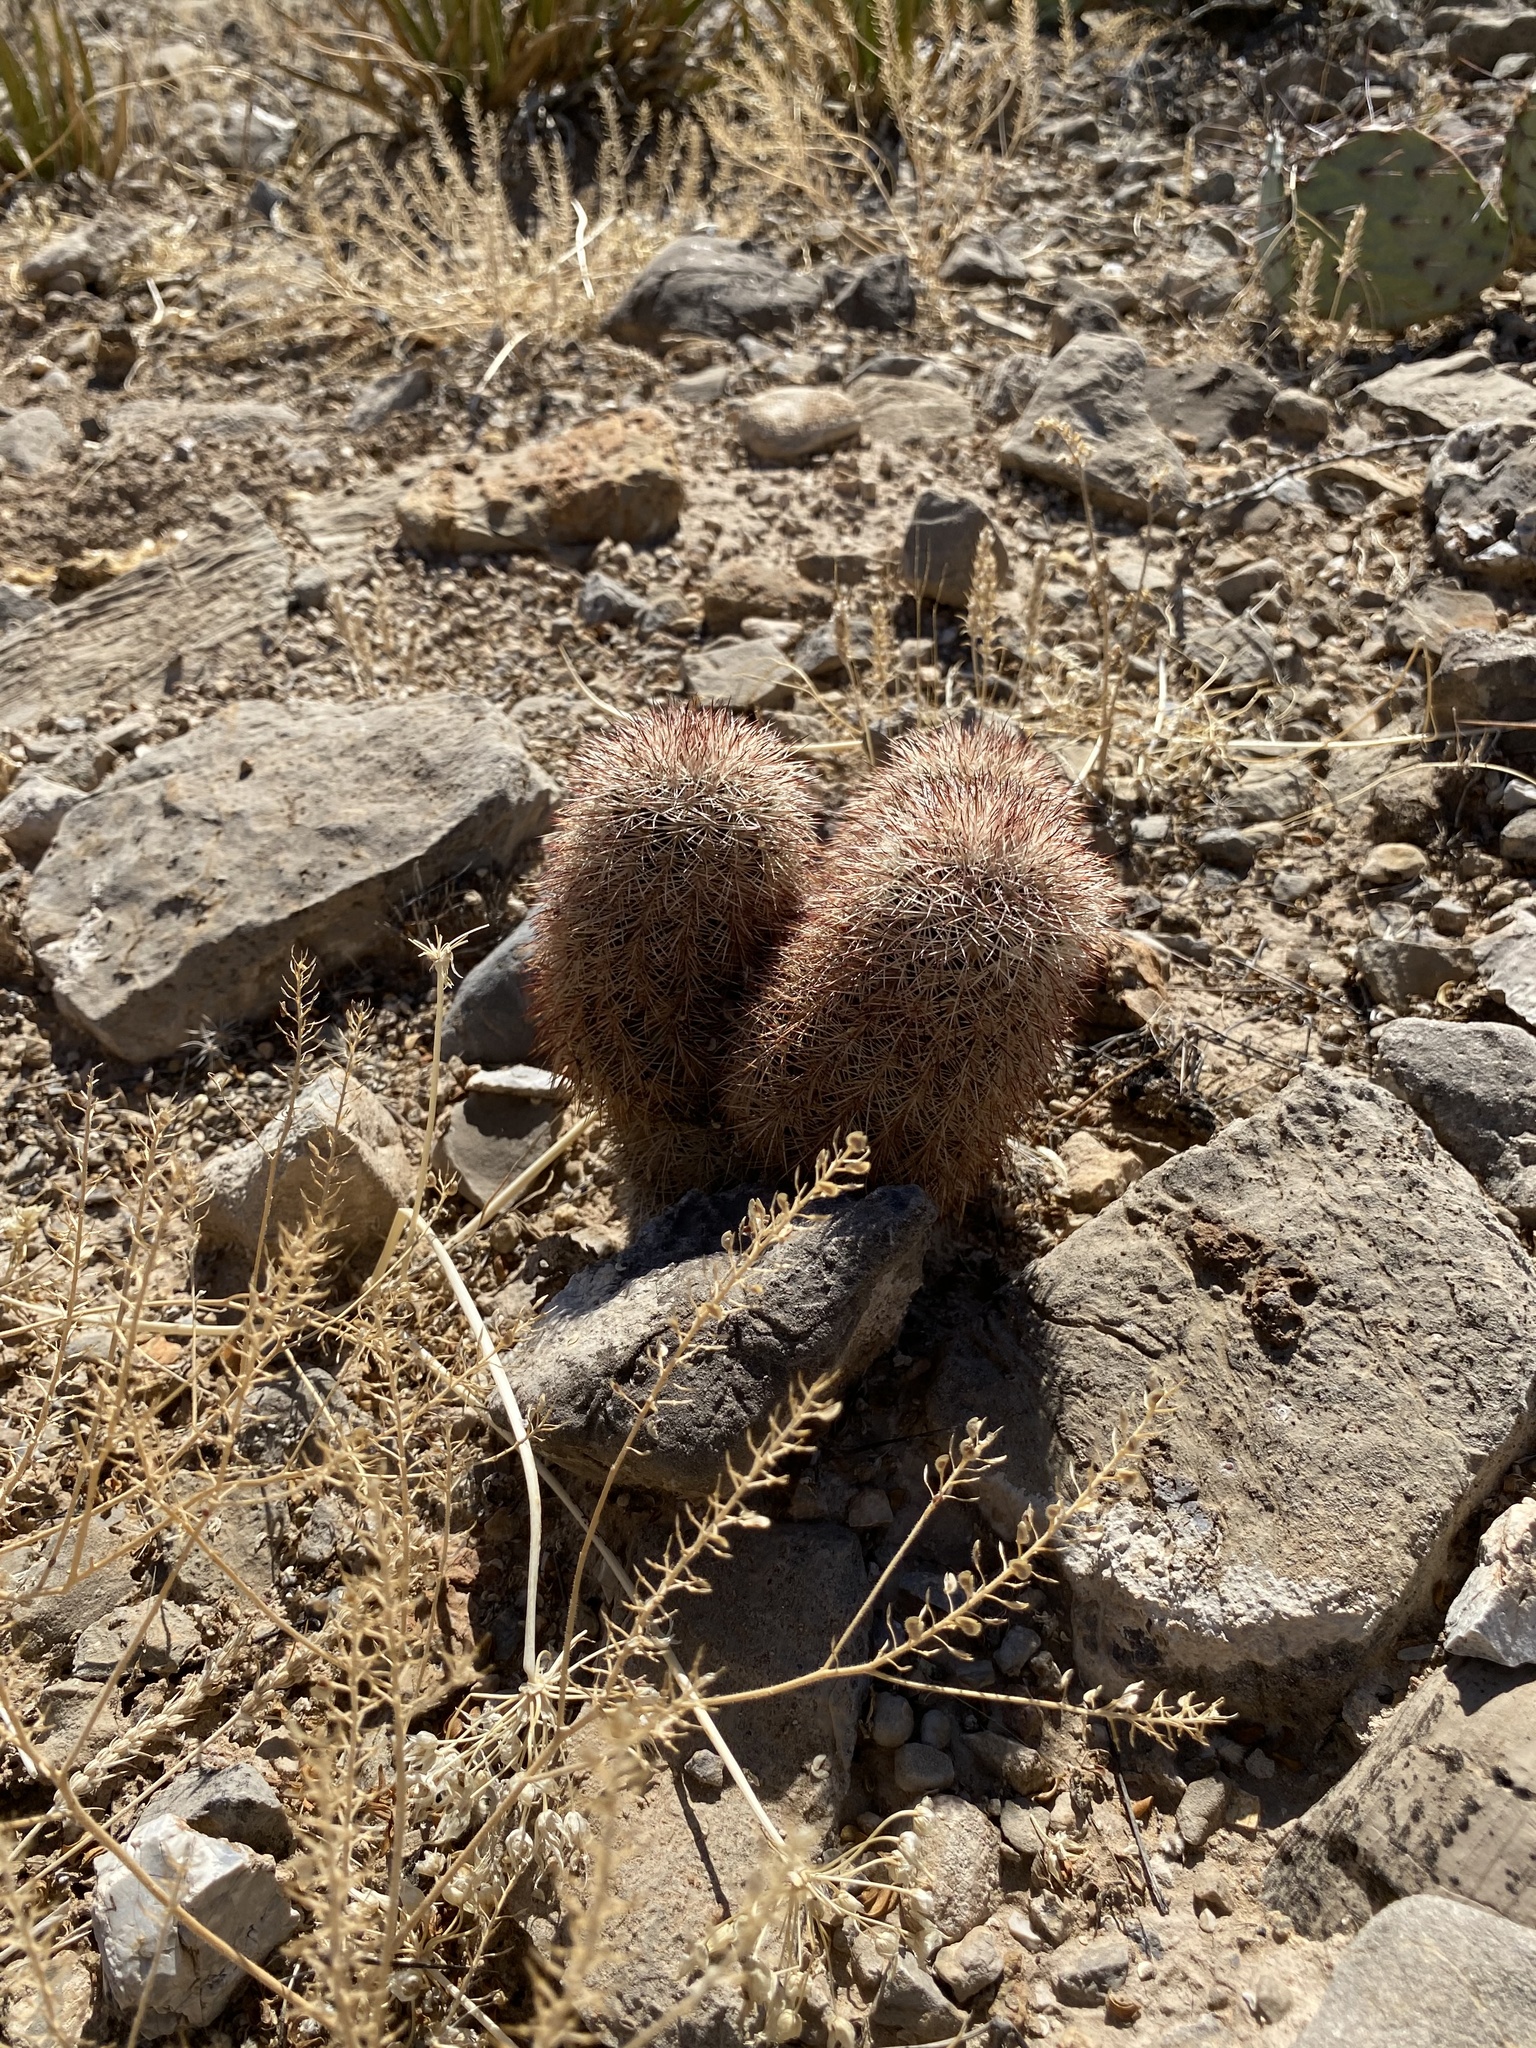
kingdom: Plantae
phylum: Tracheophyta
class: Magnoliopsida
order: Caryophyllales
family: Cactaceae
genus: Echinocereus
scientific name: Echinocereus dasyacanthus
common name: Spiny hedgehog cactus
